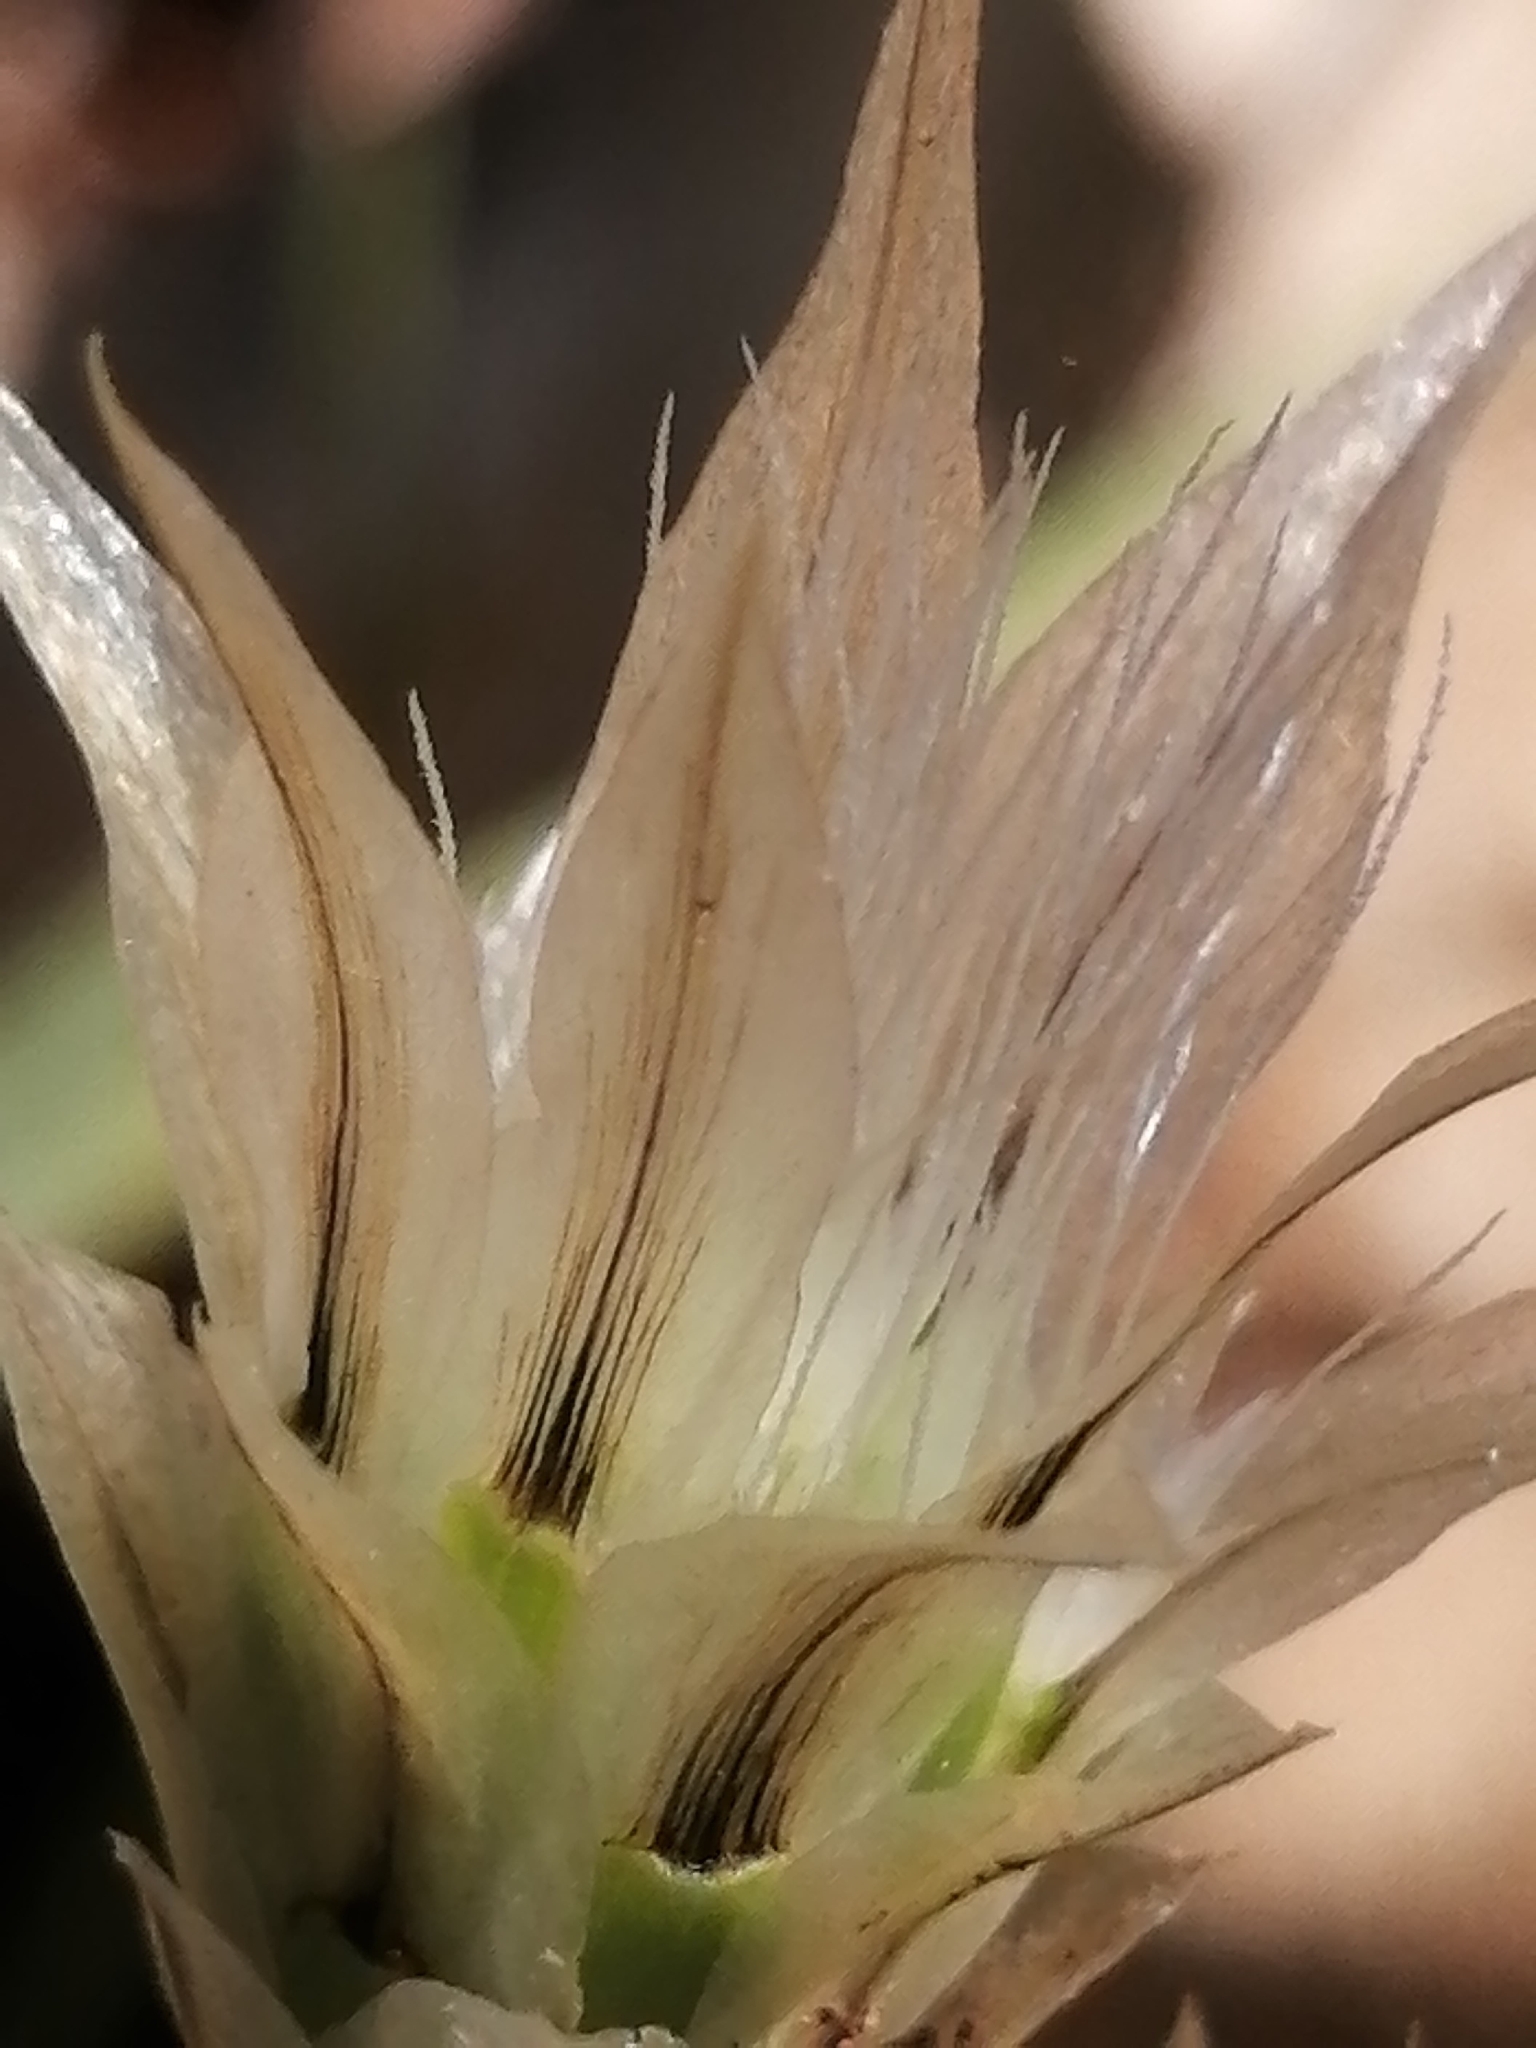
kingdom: Plantae
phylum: Tracheophyta
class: Magnoliopsida
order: Asterales
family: Asteraceae
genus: Catananche
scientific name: Catananche lutea
